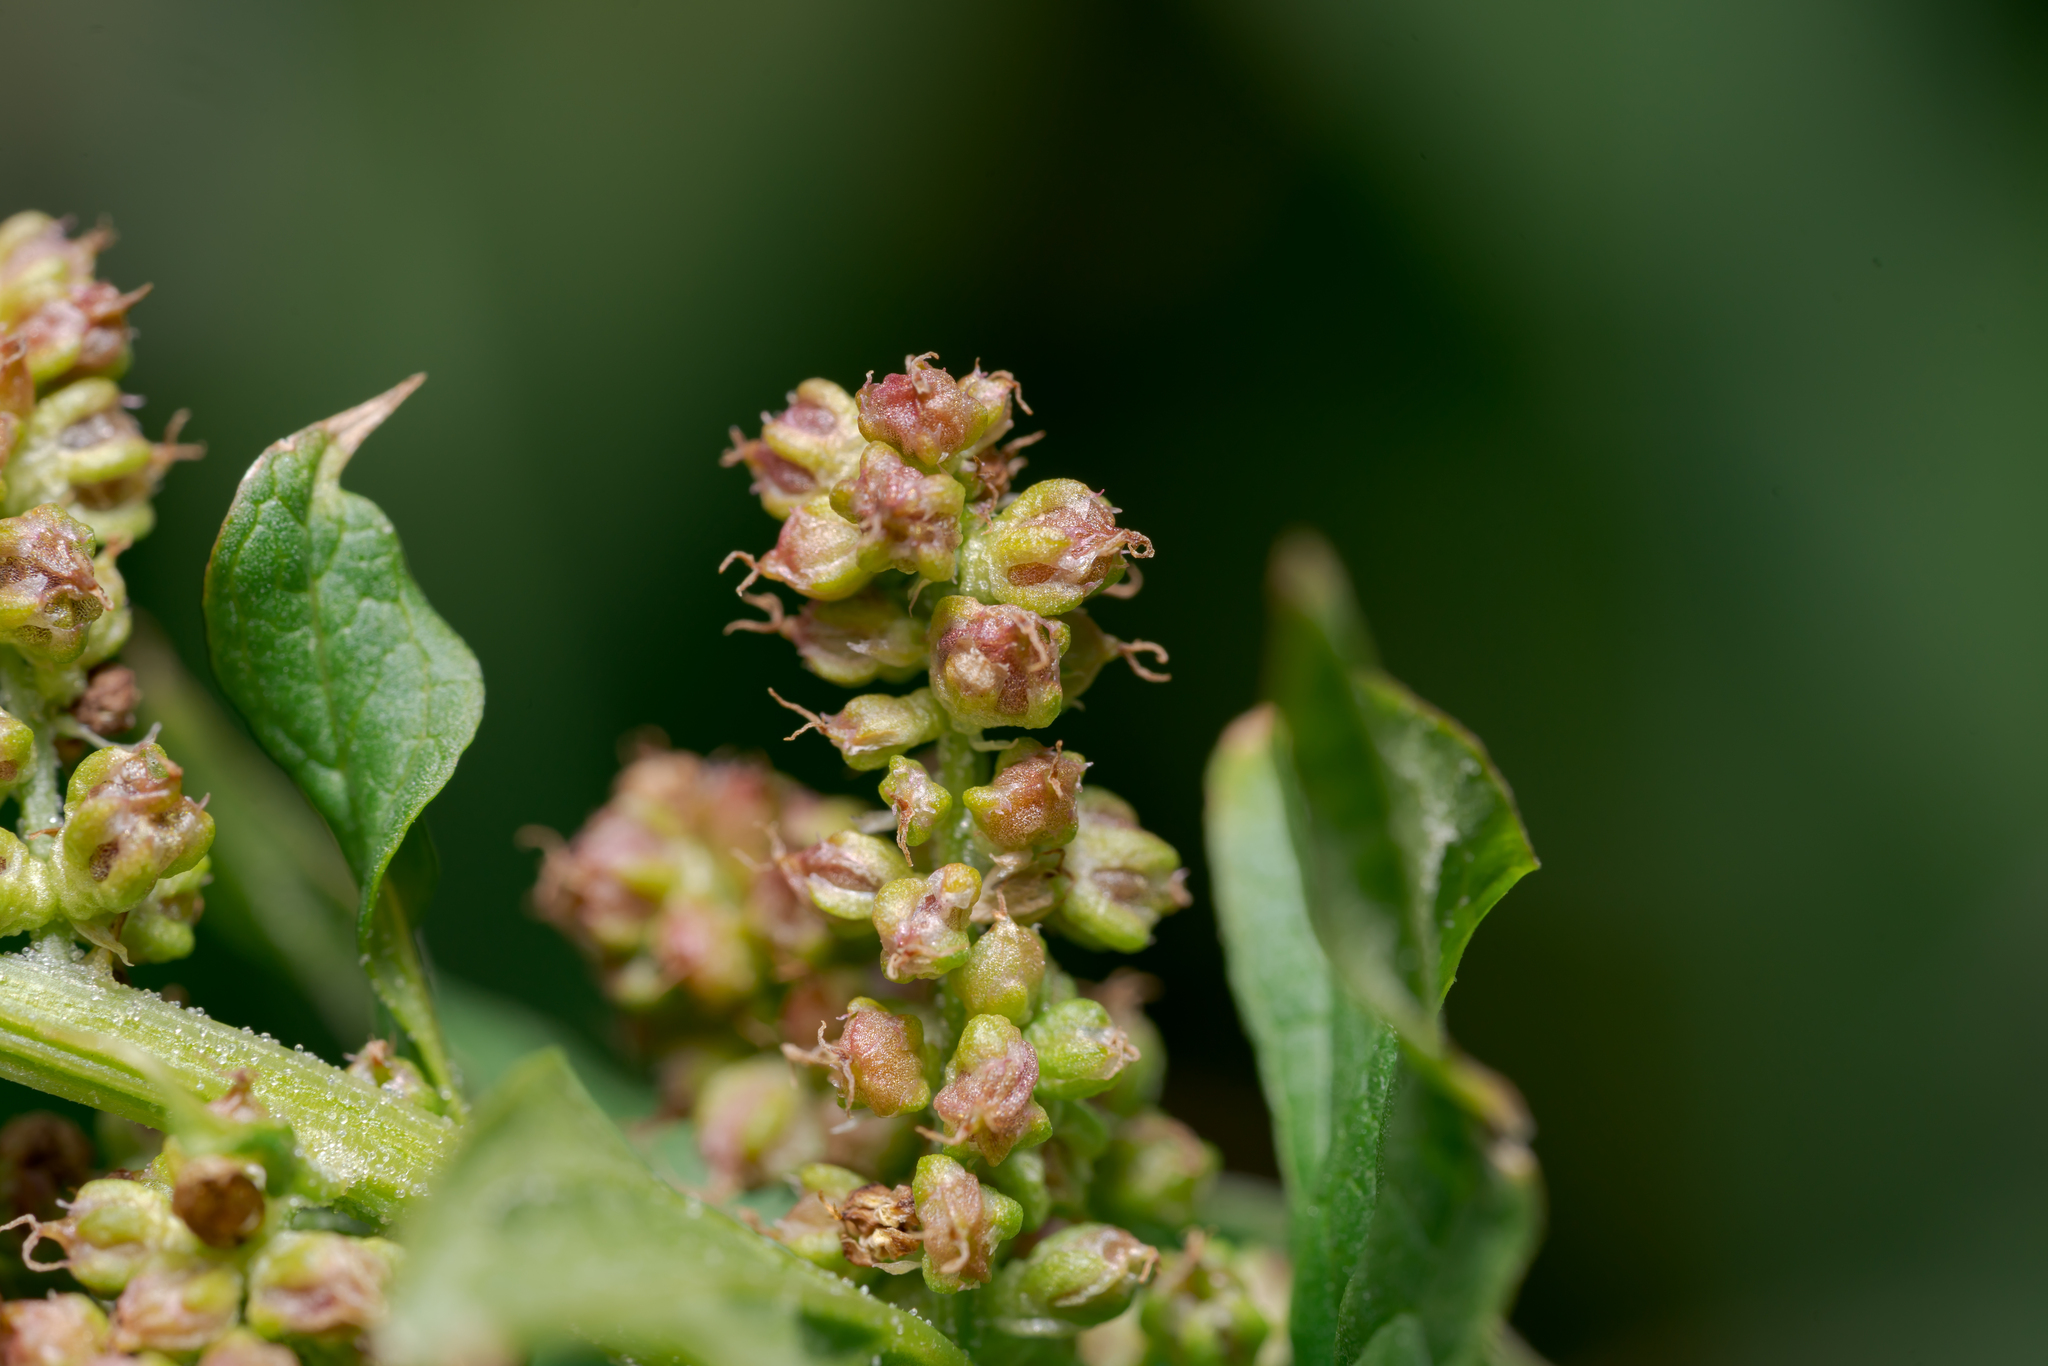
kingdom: Plantae
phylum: Tracheophyta
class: Magnoliopsida
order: Caryophyllales
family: Amaranthaceae
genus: Blitum
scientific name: Blitum bonus-henricus
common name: Good king henry
